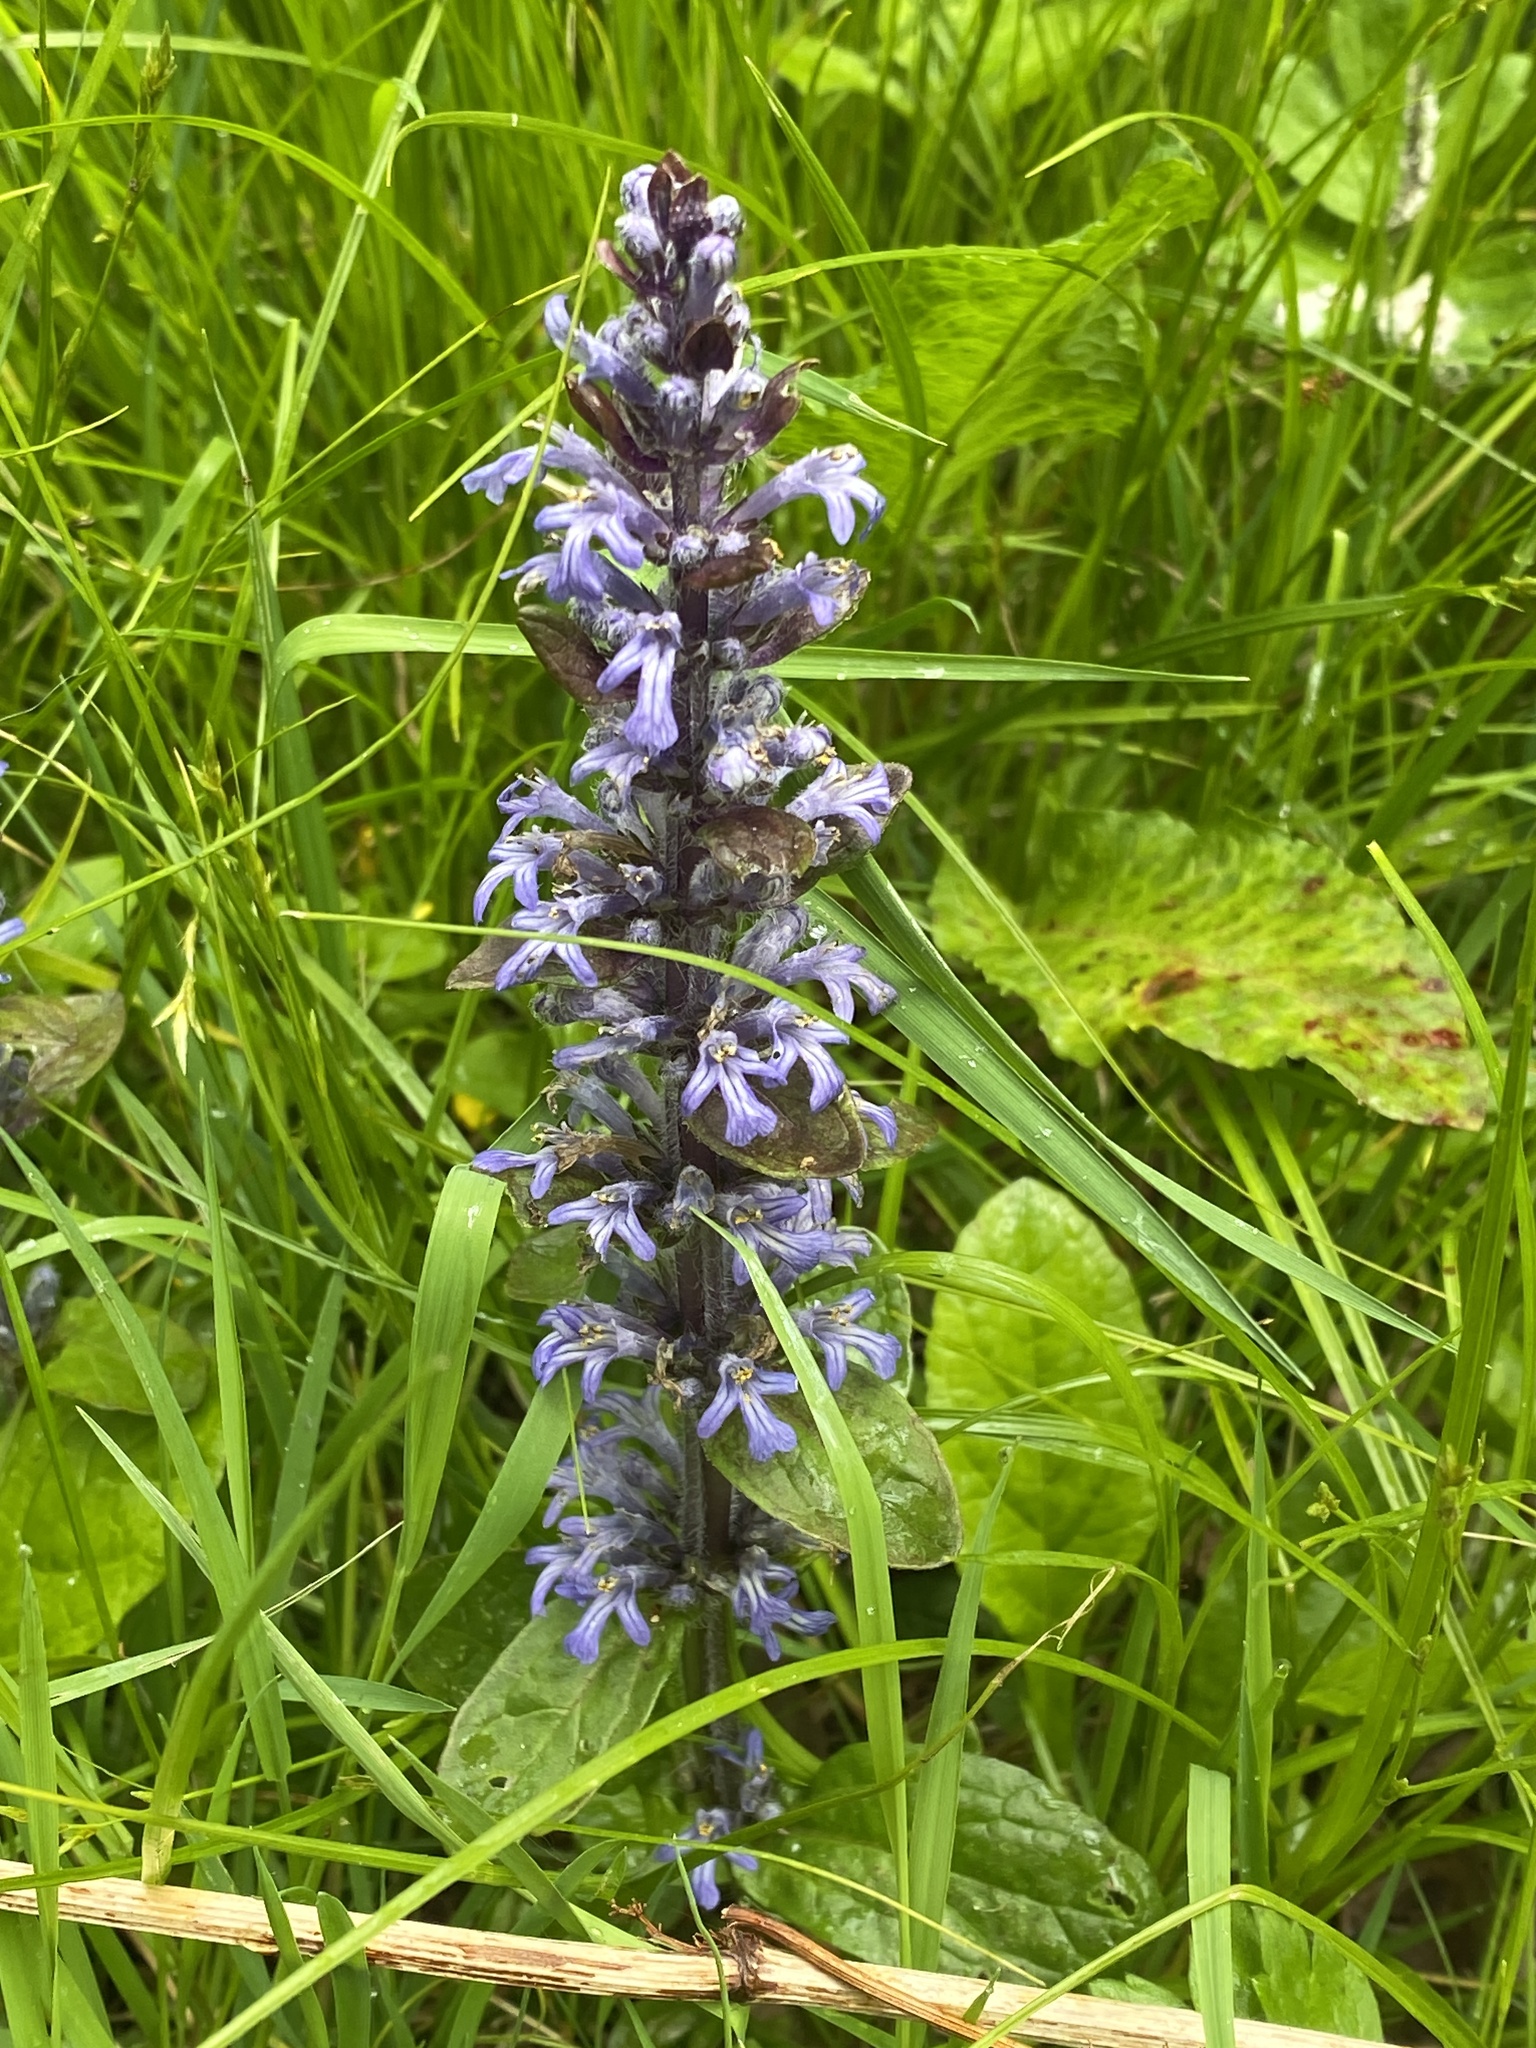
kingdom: Plantae
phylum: Tracheophyta
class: Magnoliopsida
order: Lamiales
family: Lamiaceae
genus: Ajuga
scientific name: Ajuga reptans
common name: Bugle
